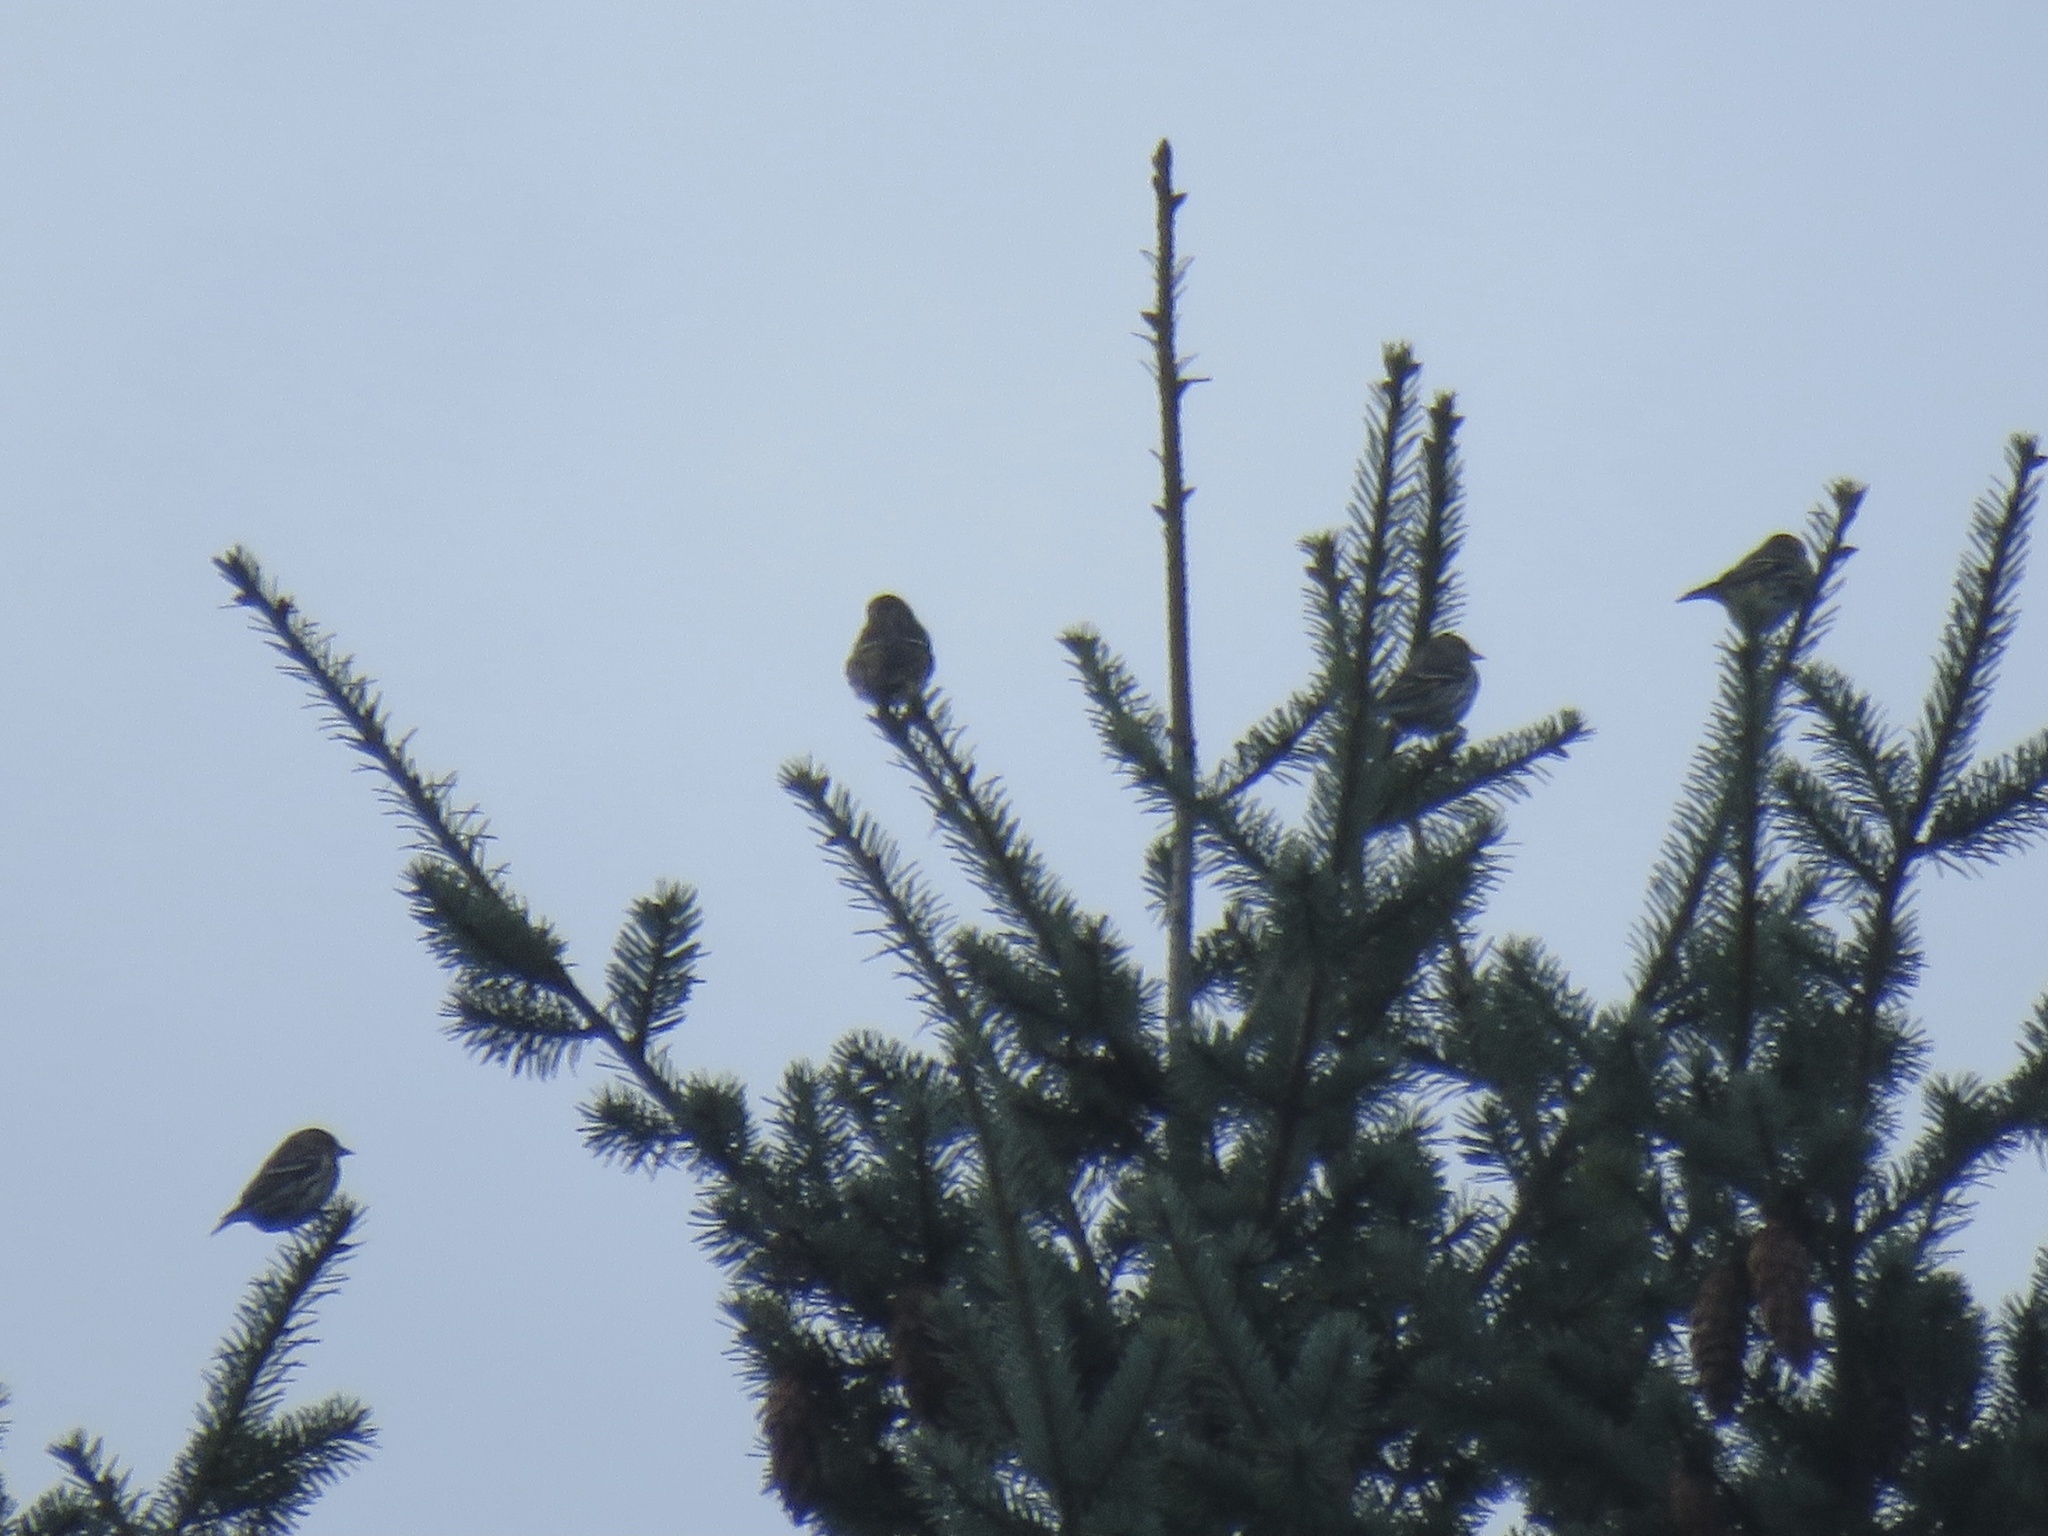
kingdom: Animalia
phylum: Chordata
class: Aves
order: Passeriformes
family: Fringillidae
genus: Spinus
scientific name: Spinus pinus
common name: Pine siskin
